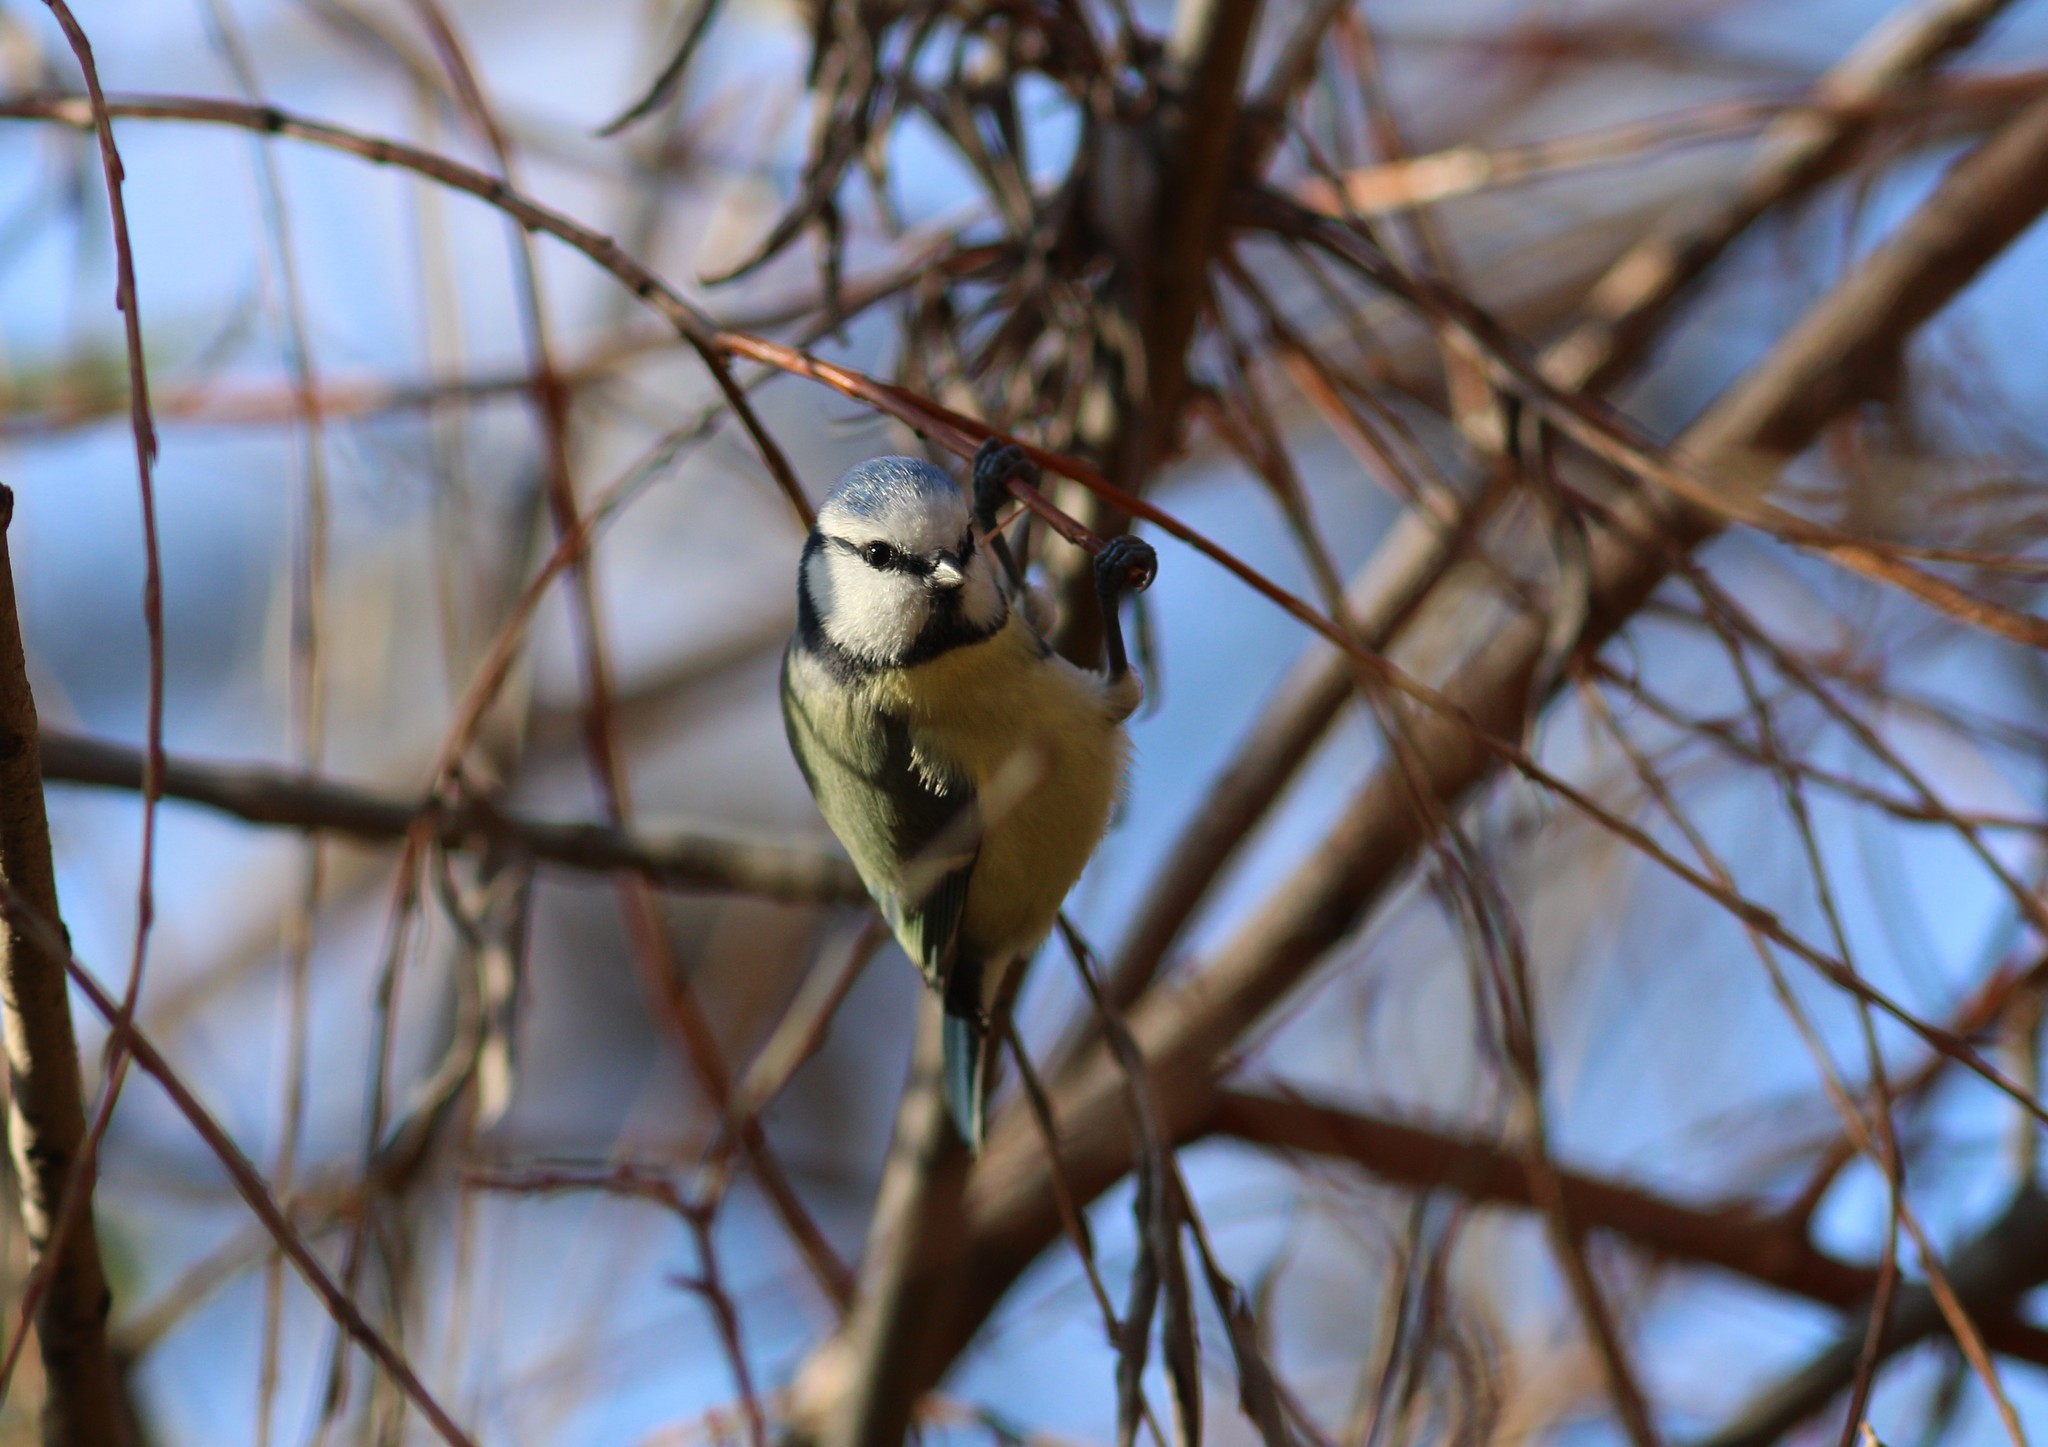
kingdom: Animalia
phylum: Chordata
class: Aves
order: Passeriformes
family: Paridae
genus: Cyanistes
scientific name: Cyanistes caeruleus
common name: Eurasian blue tit
